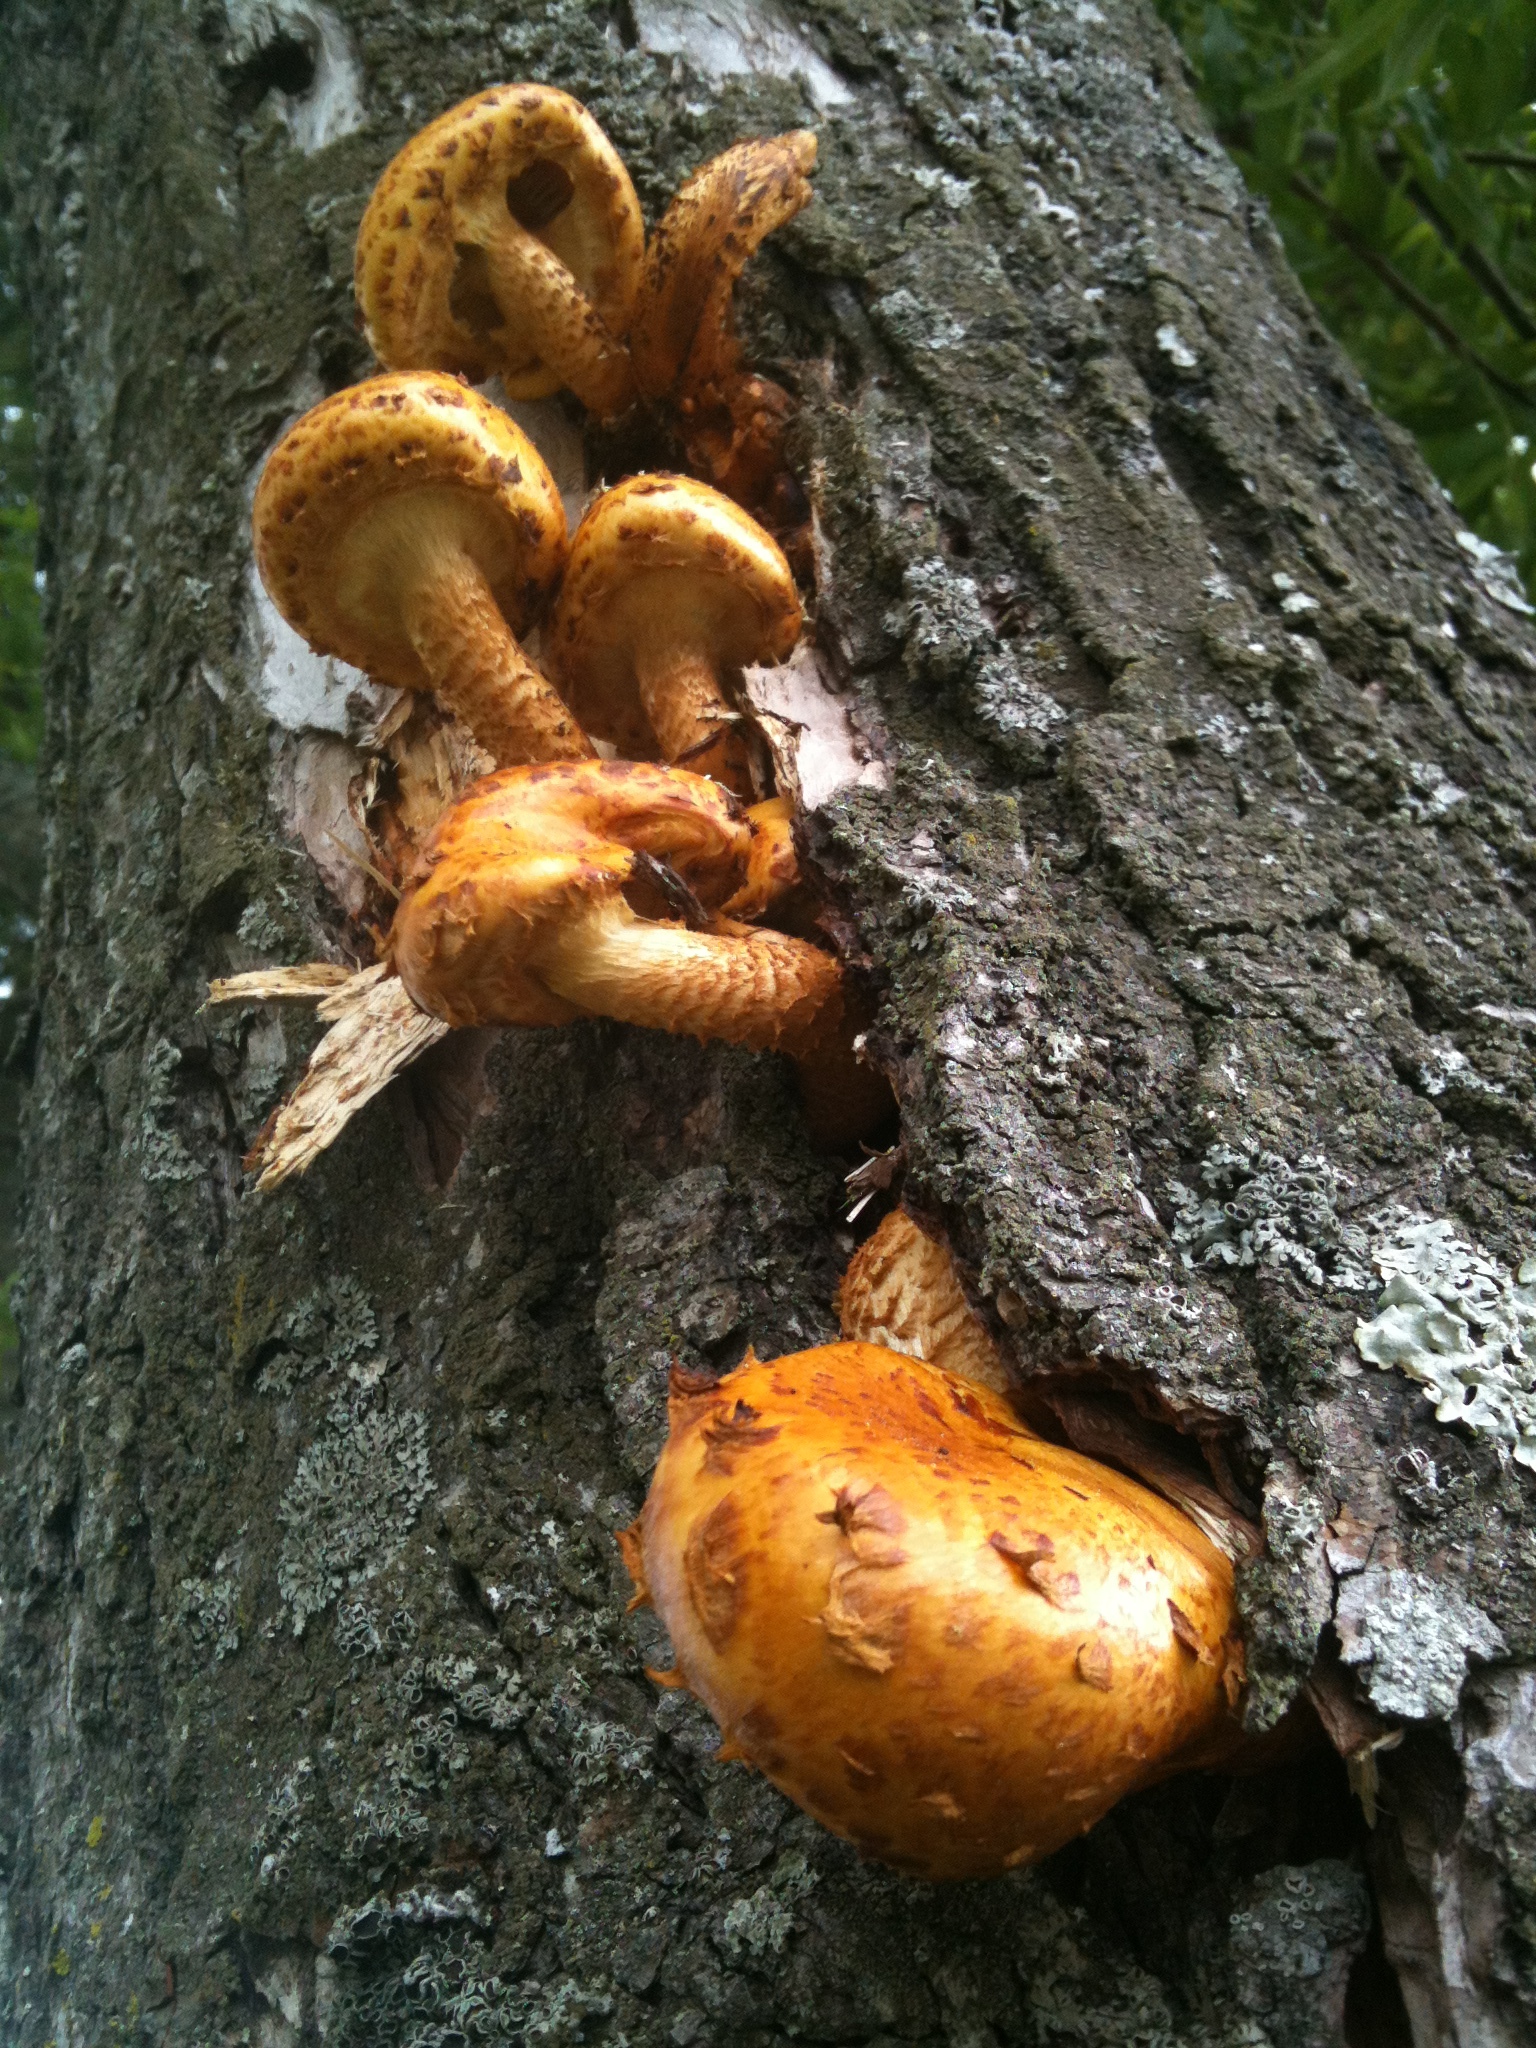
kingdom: Fungi
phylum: Basidiomycota
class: Agaricomycetes
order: Agaricales
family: Strophariaceae
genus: Pholiota
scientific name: Pholiota aurivella
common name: Golden scalycap
